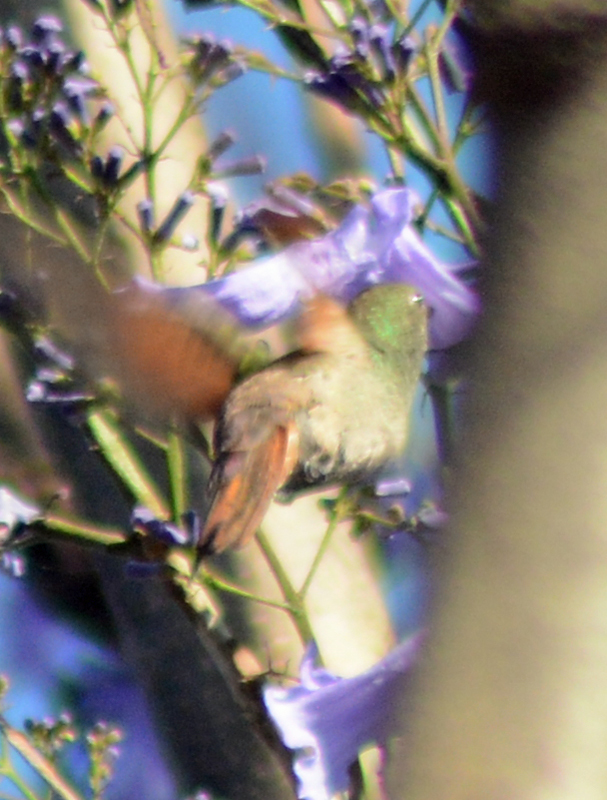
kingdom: Animalia
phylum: Chordata
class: Aves
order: Apodiformes
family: Trochilidae
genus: Saucerottia
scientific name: Saucerottia beryllina
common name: Berylline hummingbird
